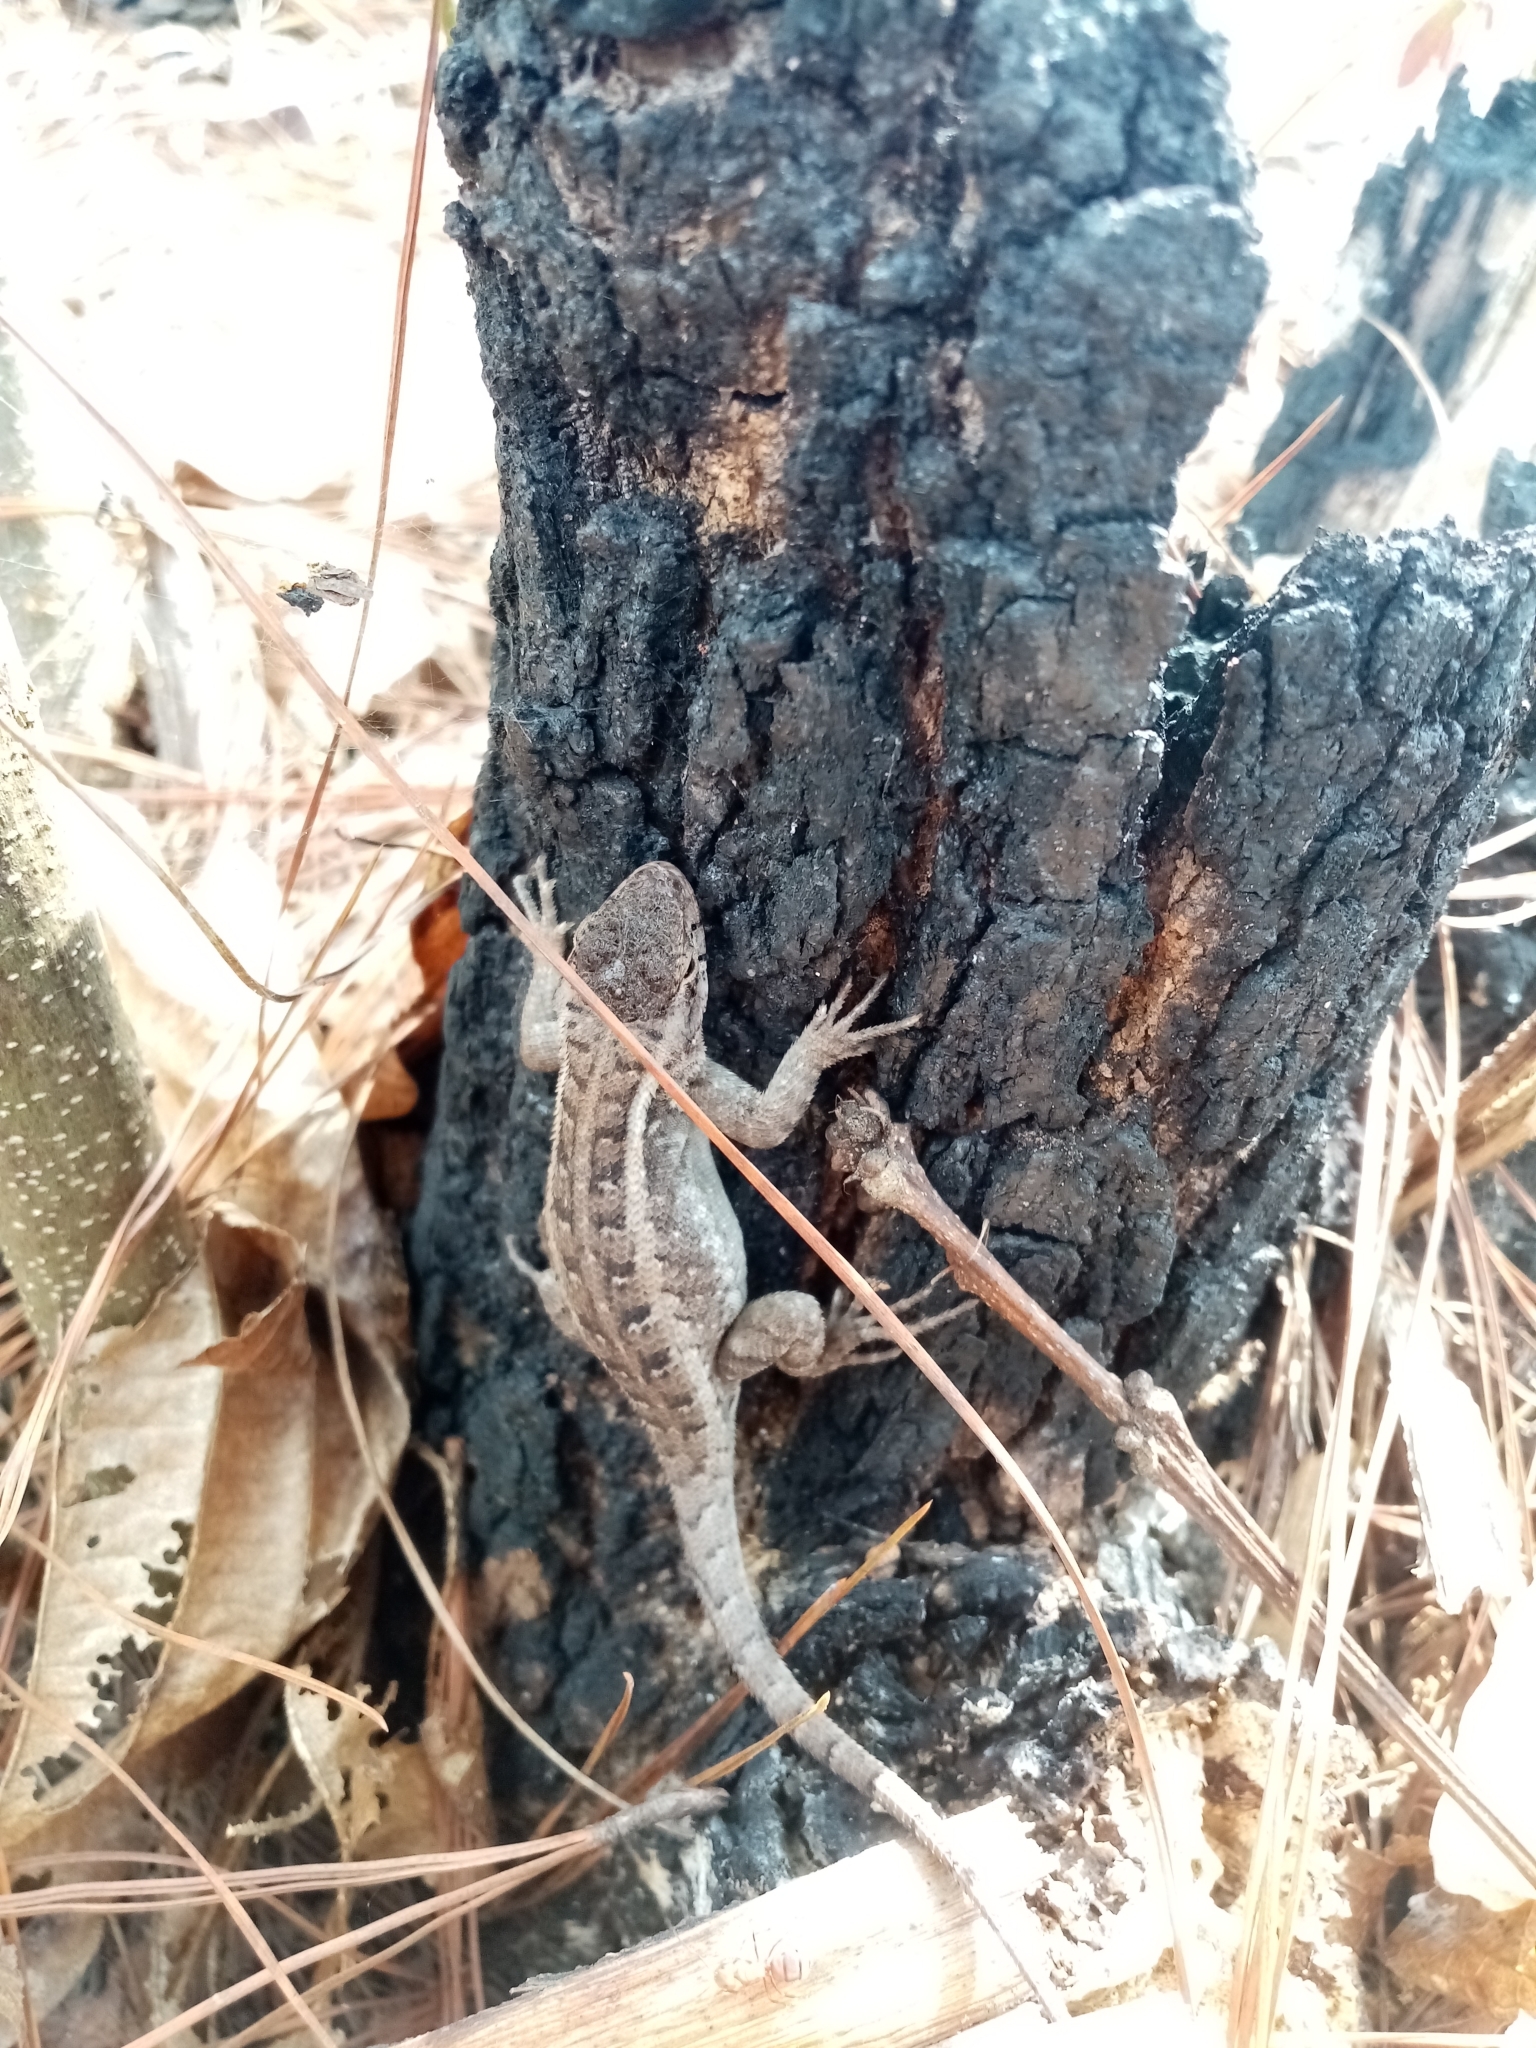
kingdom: Animalia
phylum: Chordata
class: Squamata
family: Phrynosomatidae
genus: Sceloporus
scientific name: Sceloporus variabilis
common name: Rosebelly lizard
